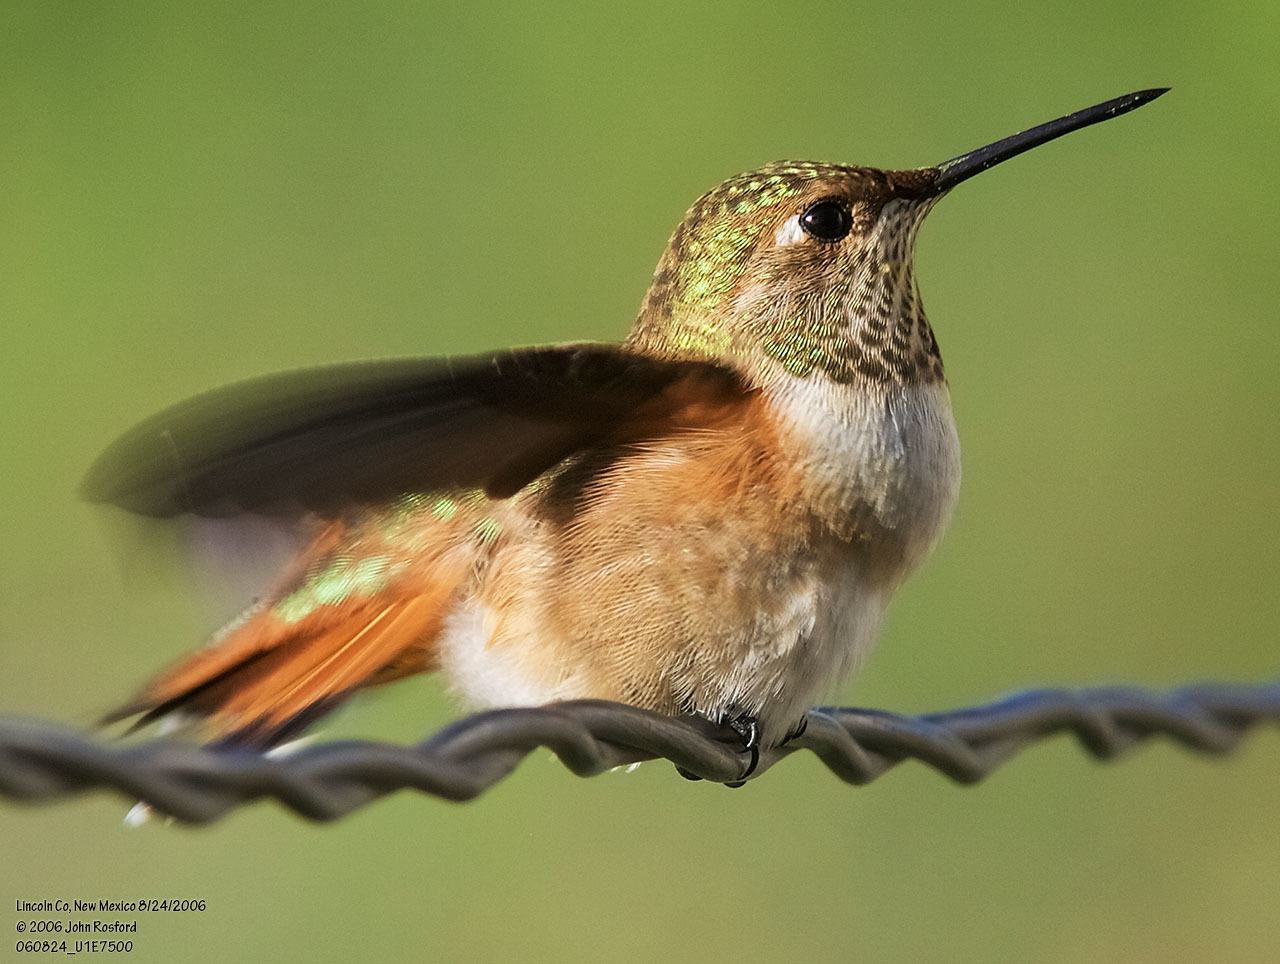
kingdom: Animalia
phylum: Chordata
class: Aves
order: Apodiformes
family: Trochilidae
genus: Selasphorus
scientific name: Selasphorus rufus
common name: Rufous hummingbird
